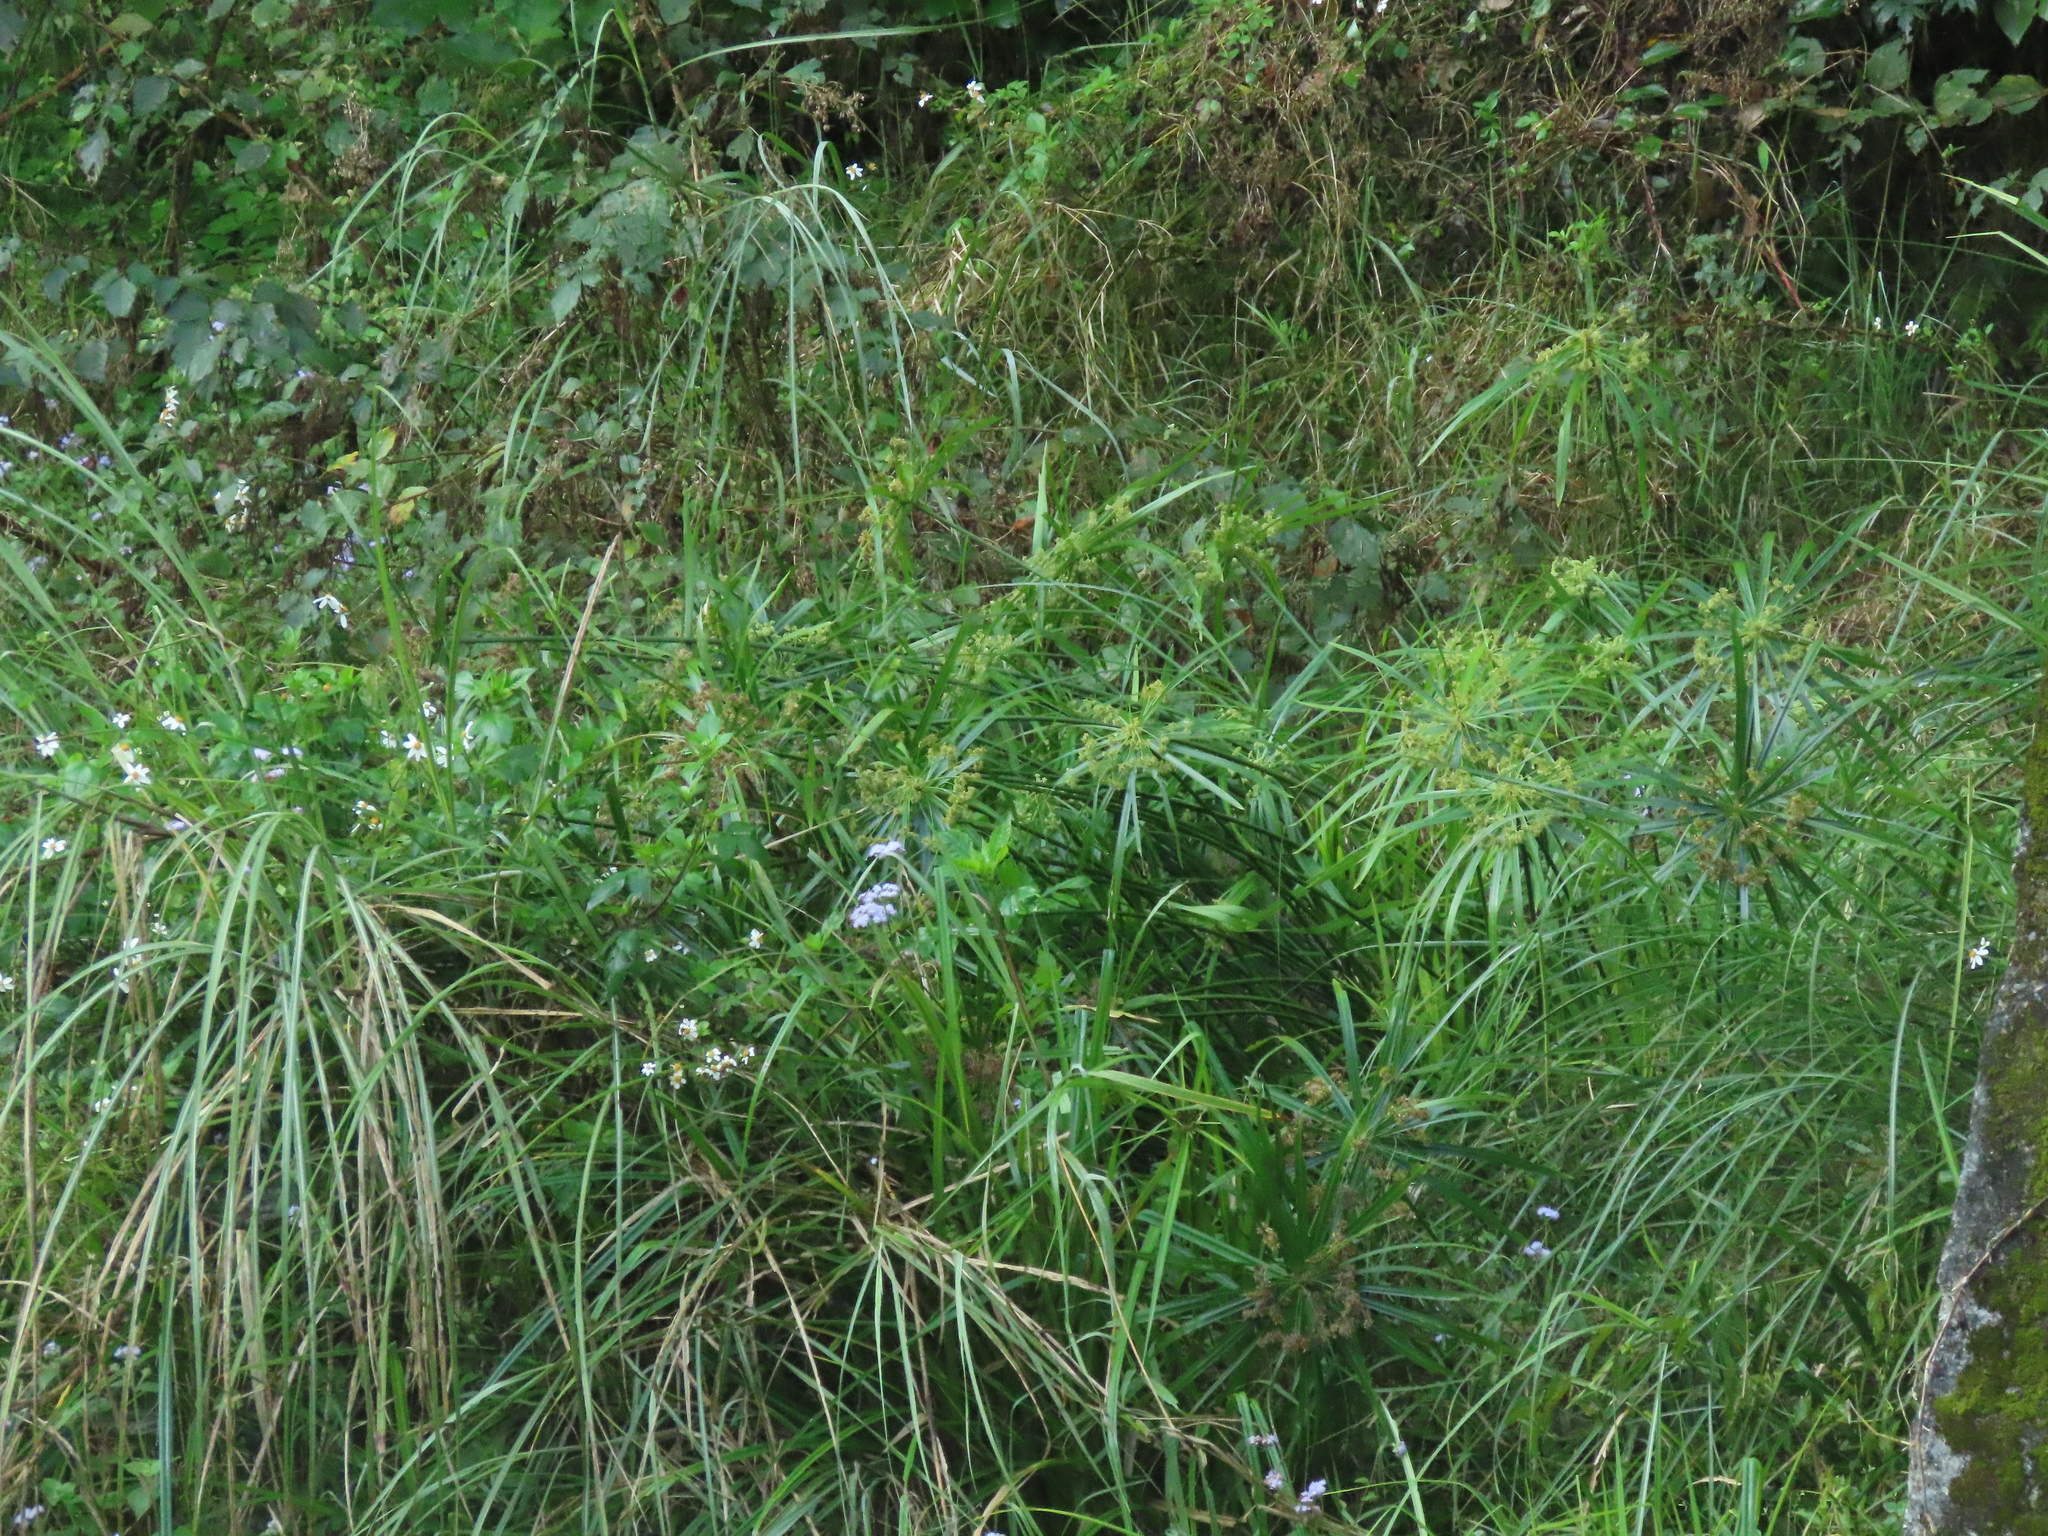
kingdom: Plantae
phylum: Tracheophyta
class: Liliopsida
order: Poales
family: Cyperaceae
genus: Cyperus
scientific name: Cyperus alternifolius
